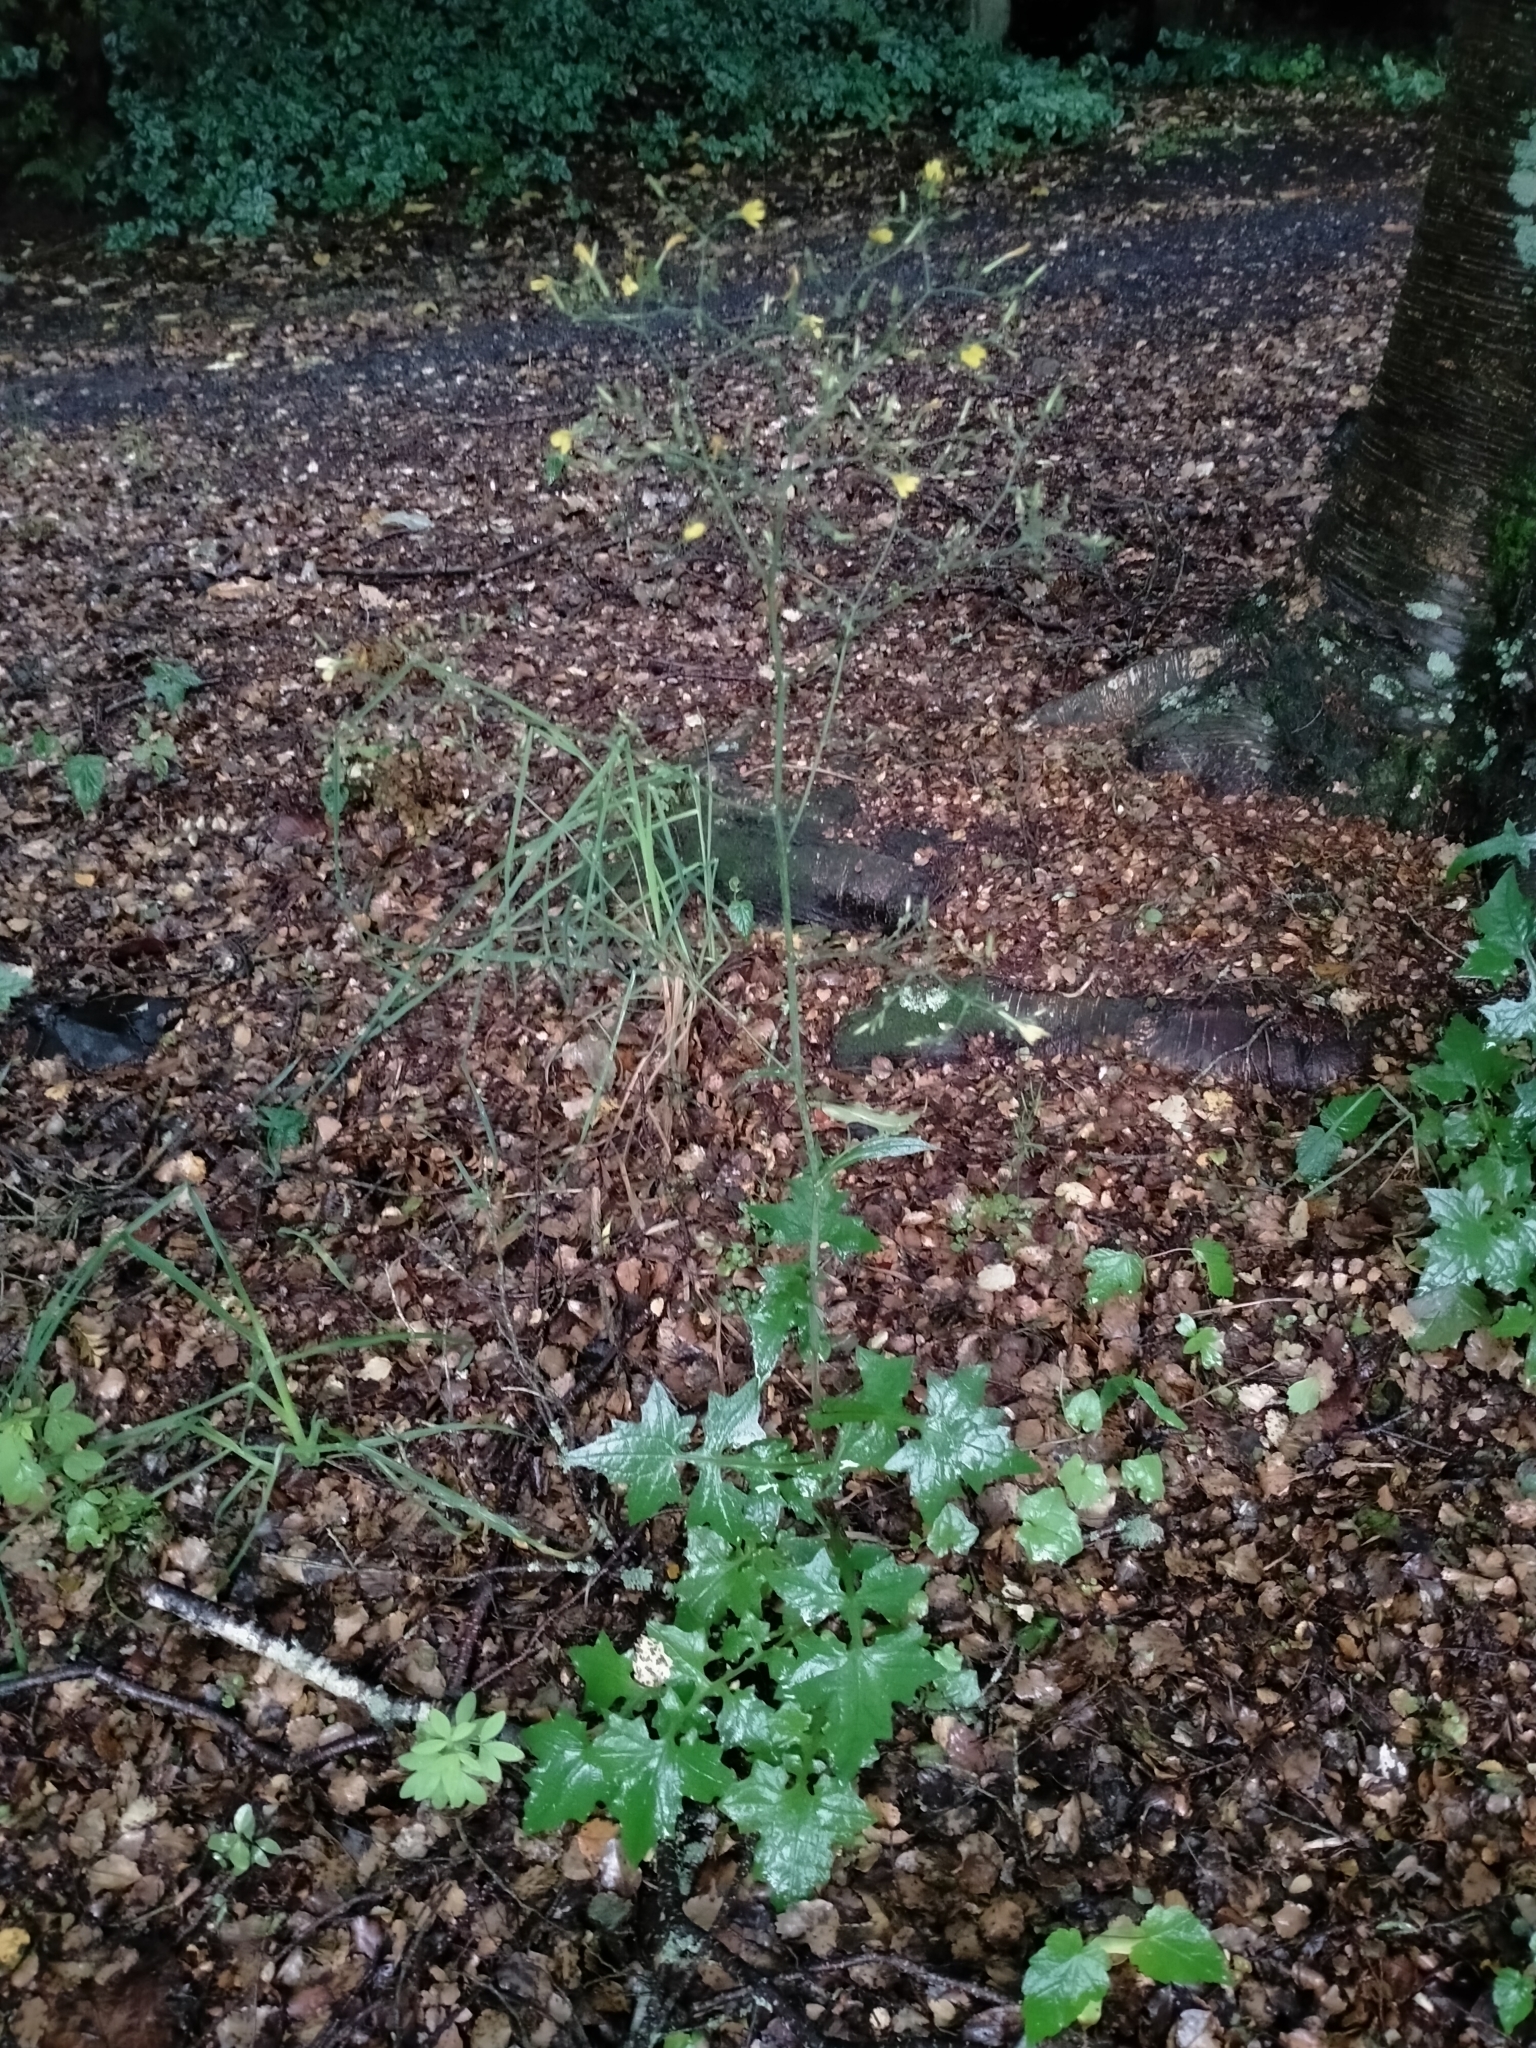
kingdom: Plantae
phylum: Tracheophyta
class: Magnoliopsida
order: Asterales
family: Asteraceae
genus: Mycelis
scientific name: Mycelis muralis
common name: Wall lettuce
